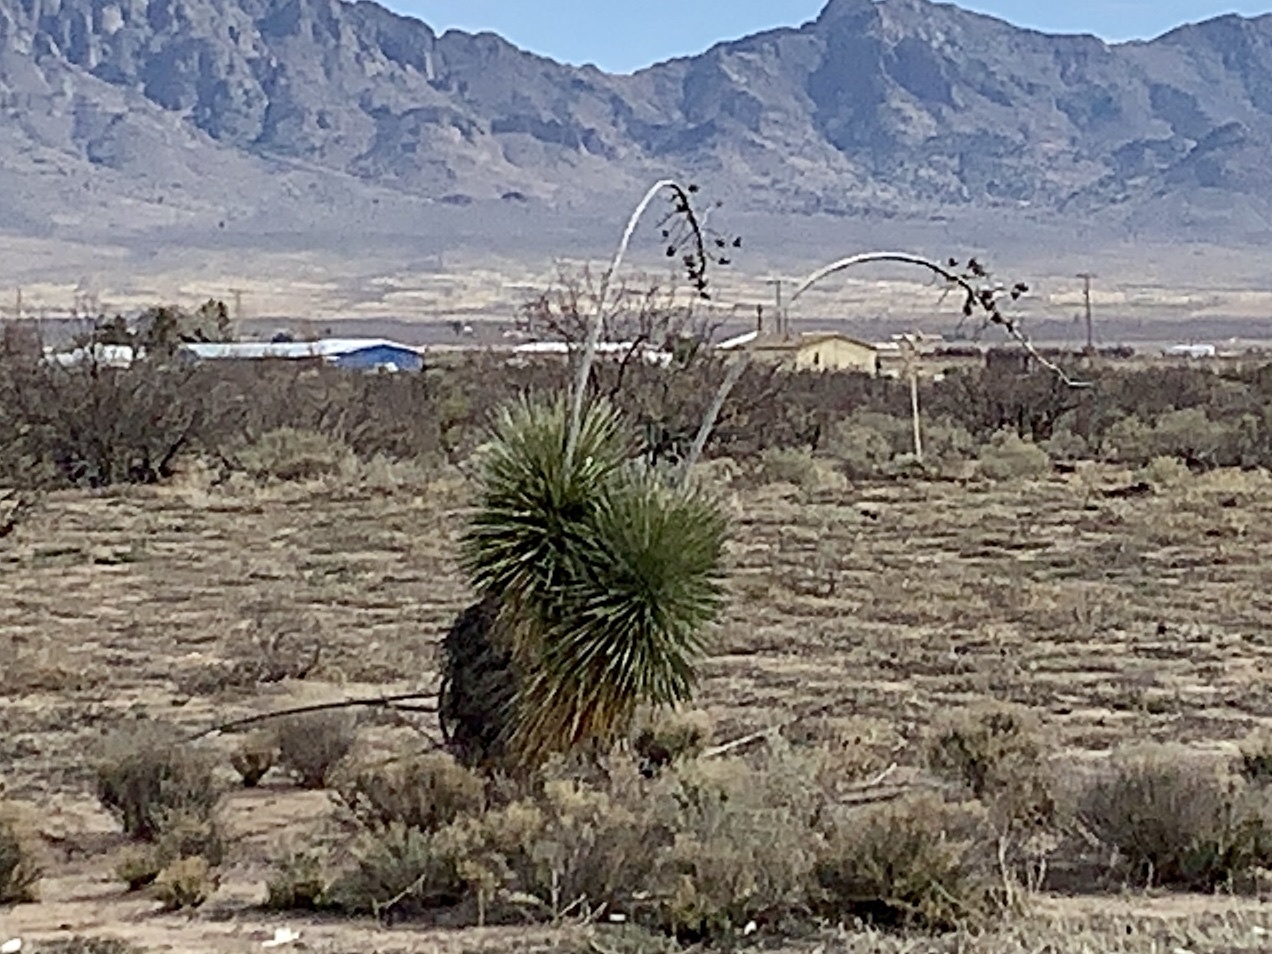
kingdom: Plantae
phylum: Tracheophyta
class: Liliopsida
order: Asparagales
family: Asparagaceae
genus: Yucca
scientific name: Yucca elata
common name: Palmella
